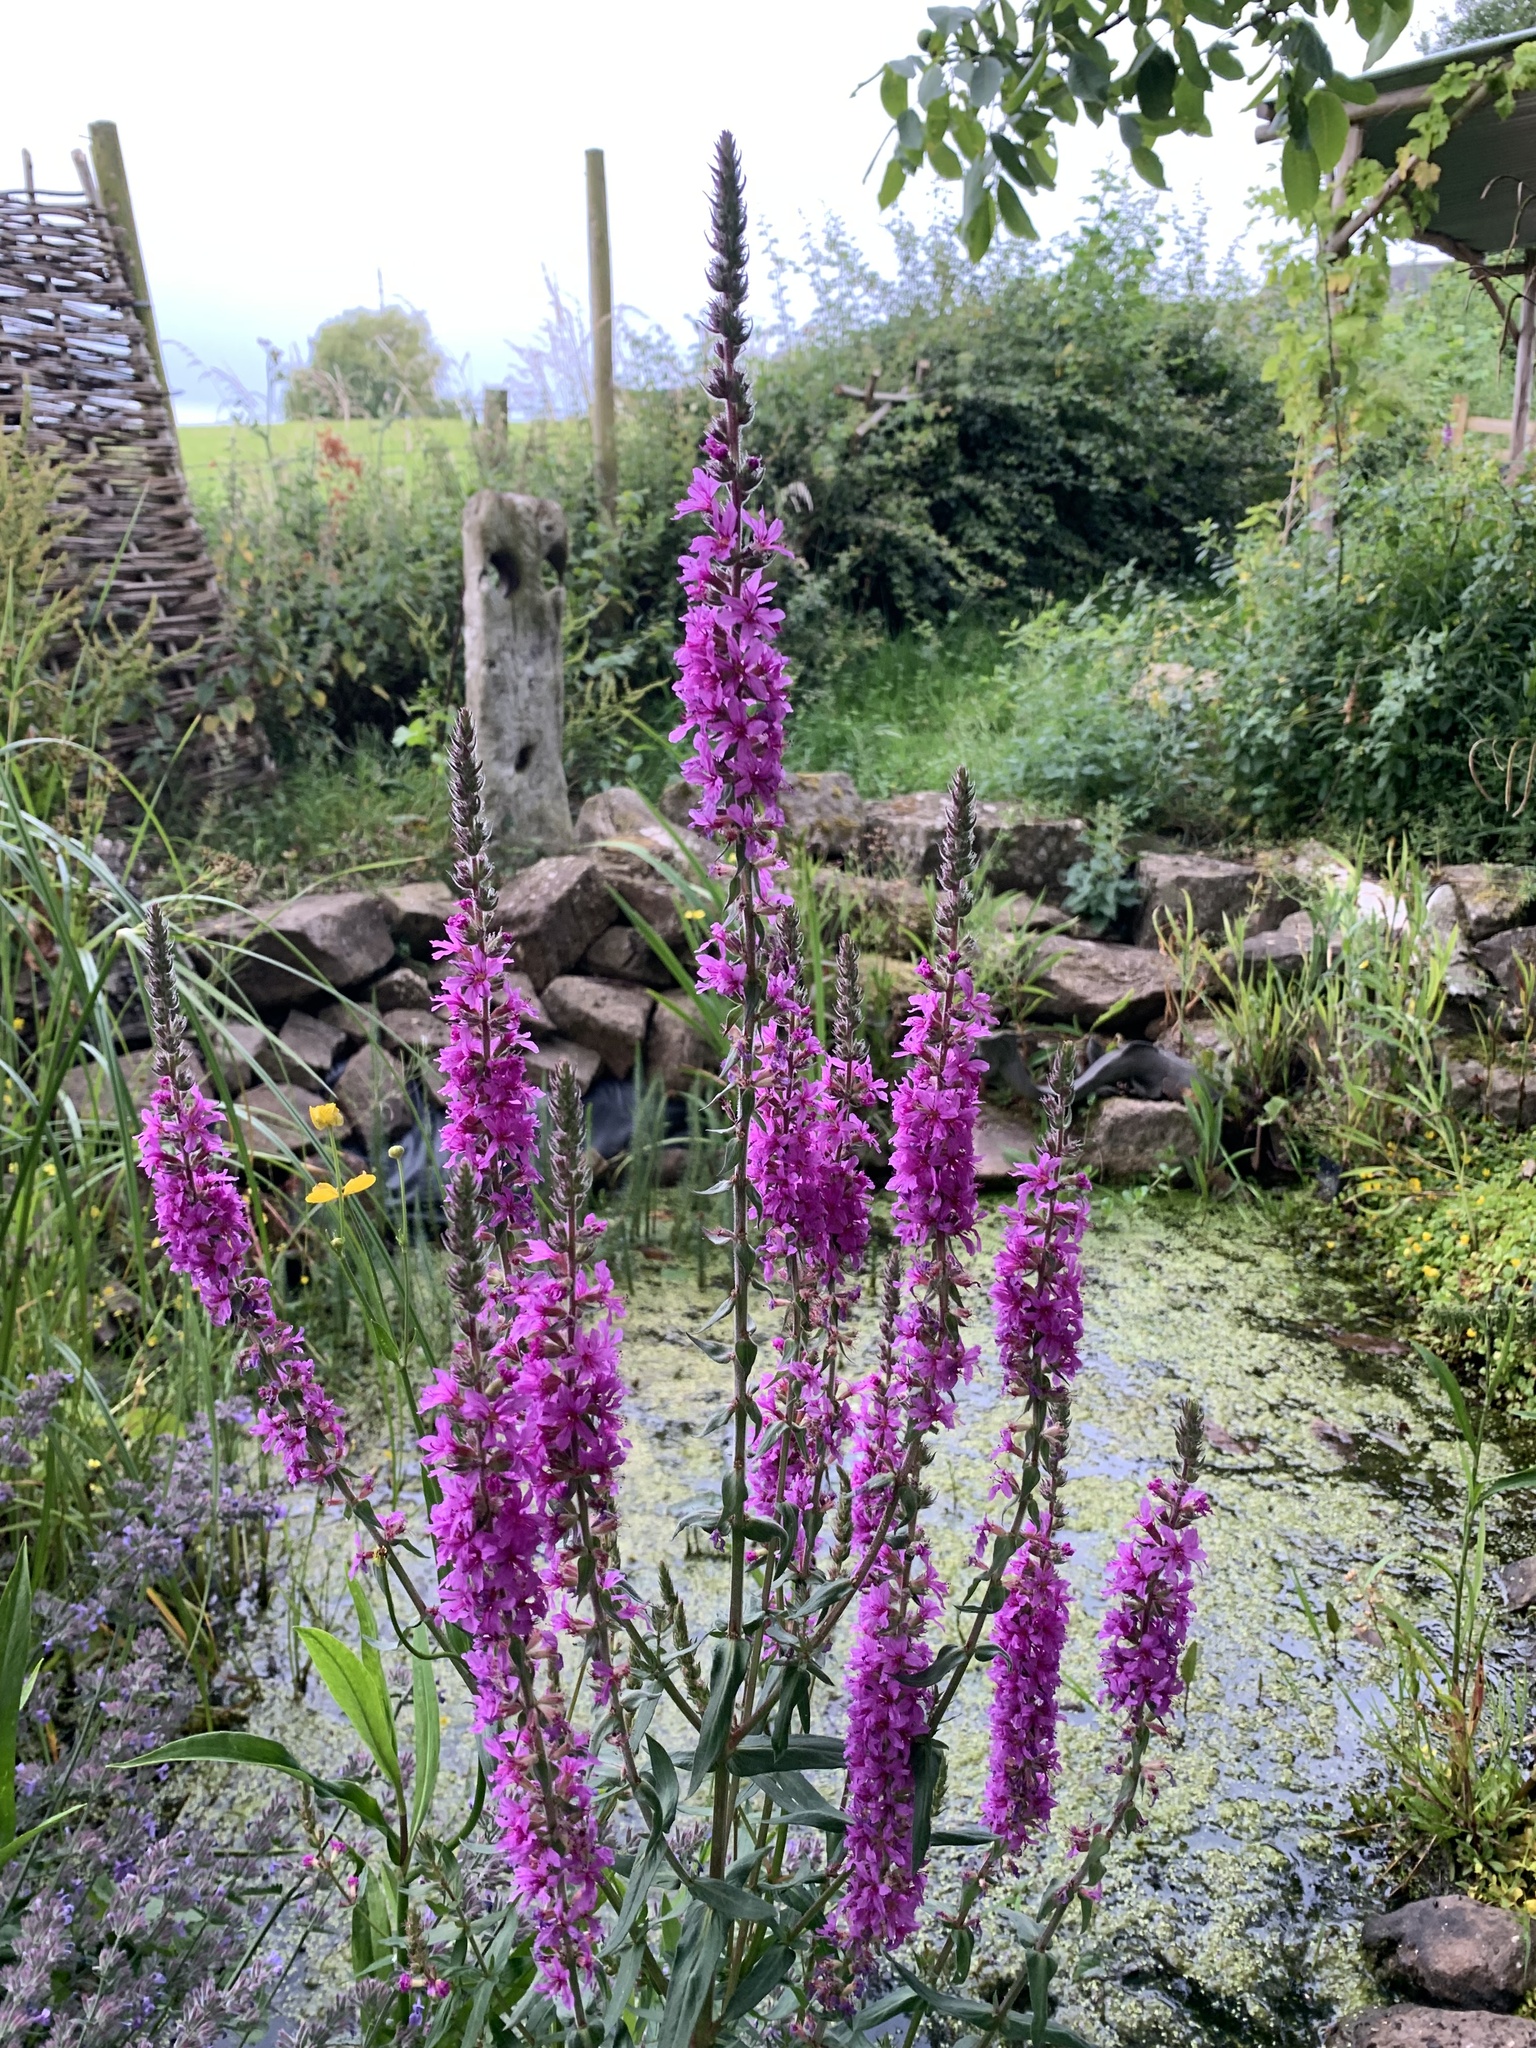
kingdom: Plantae
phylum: Tracheophyta
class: Magnoliopsida
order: Myrtales
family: Lythraceae
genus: Lythrum
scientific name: Lythrum salicaria
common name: Purple loosestrife
